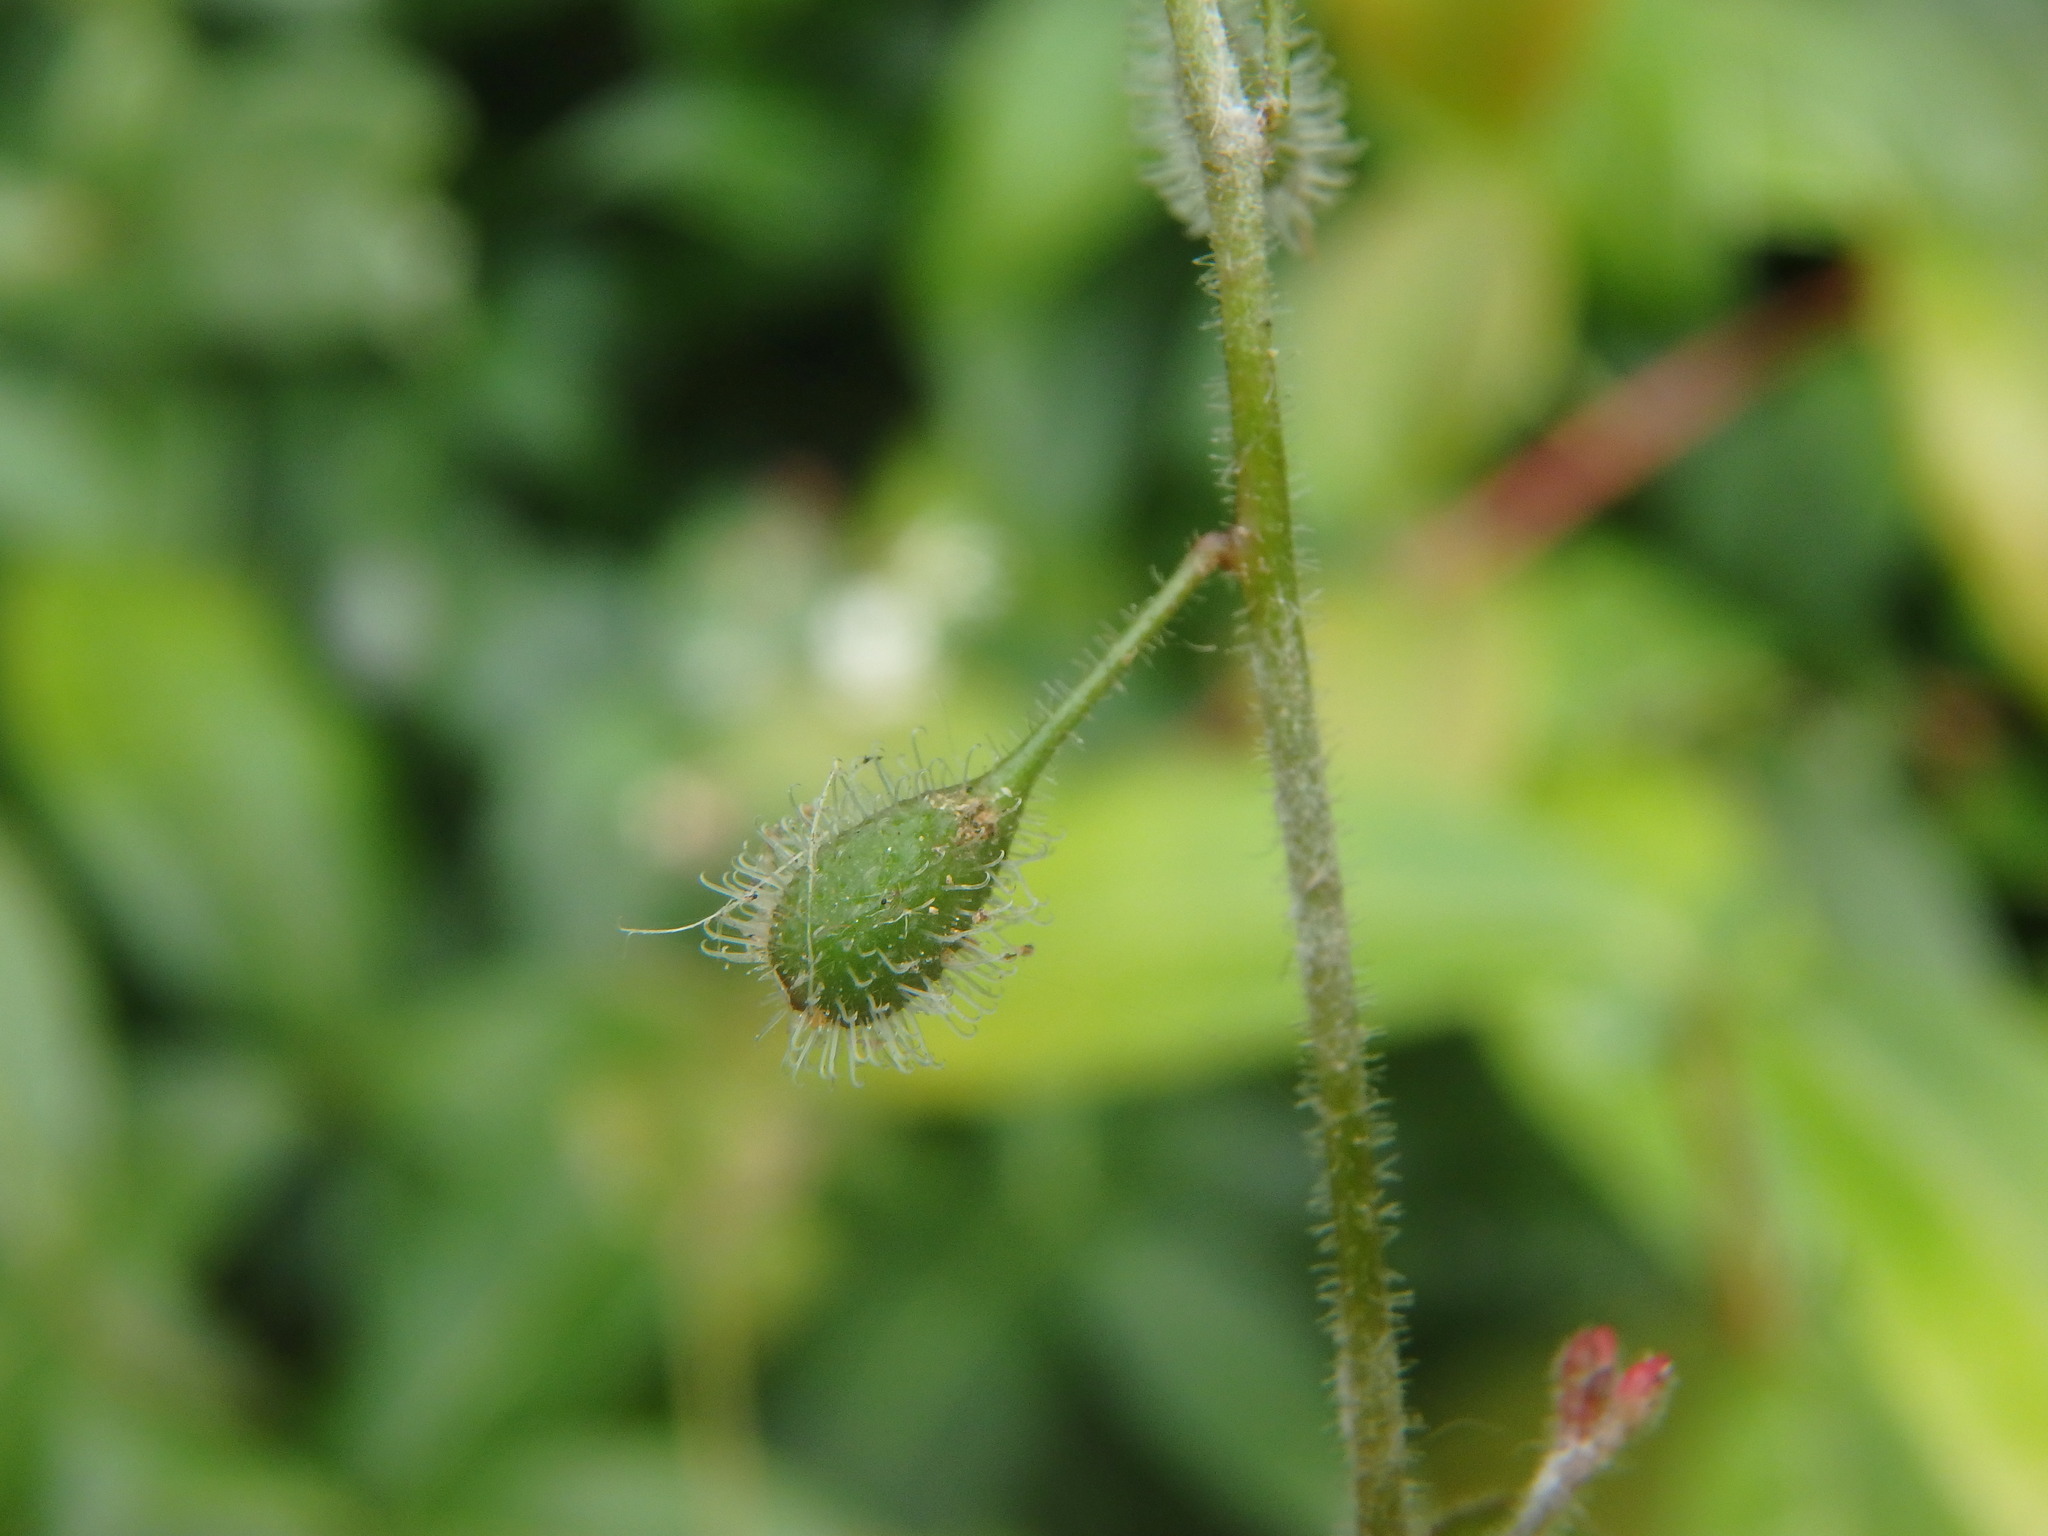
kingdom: Plantae
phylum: Tracheophyta
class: Magnoliopsida
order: Myrtales
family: Onagraceae
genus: Circaea
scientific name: Circaea lutetiana
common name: Enchanter's-nightshade
